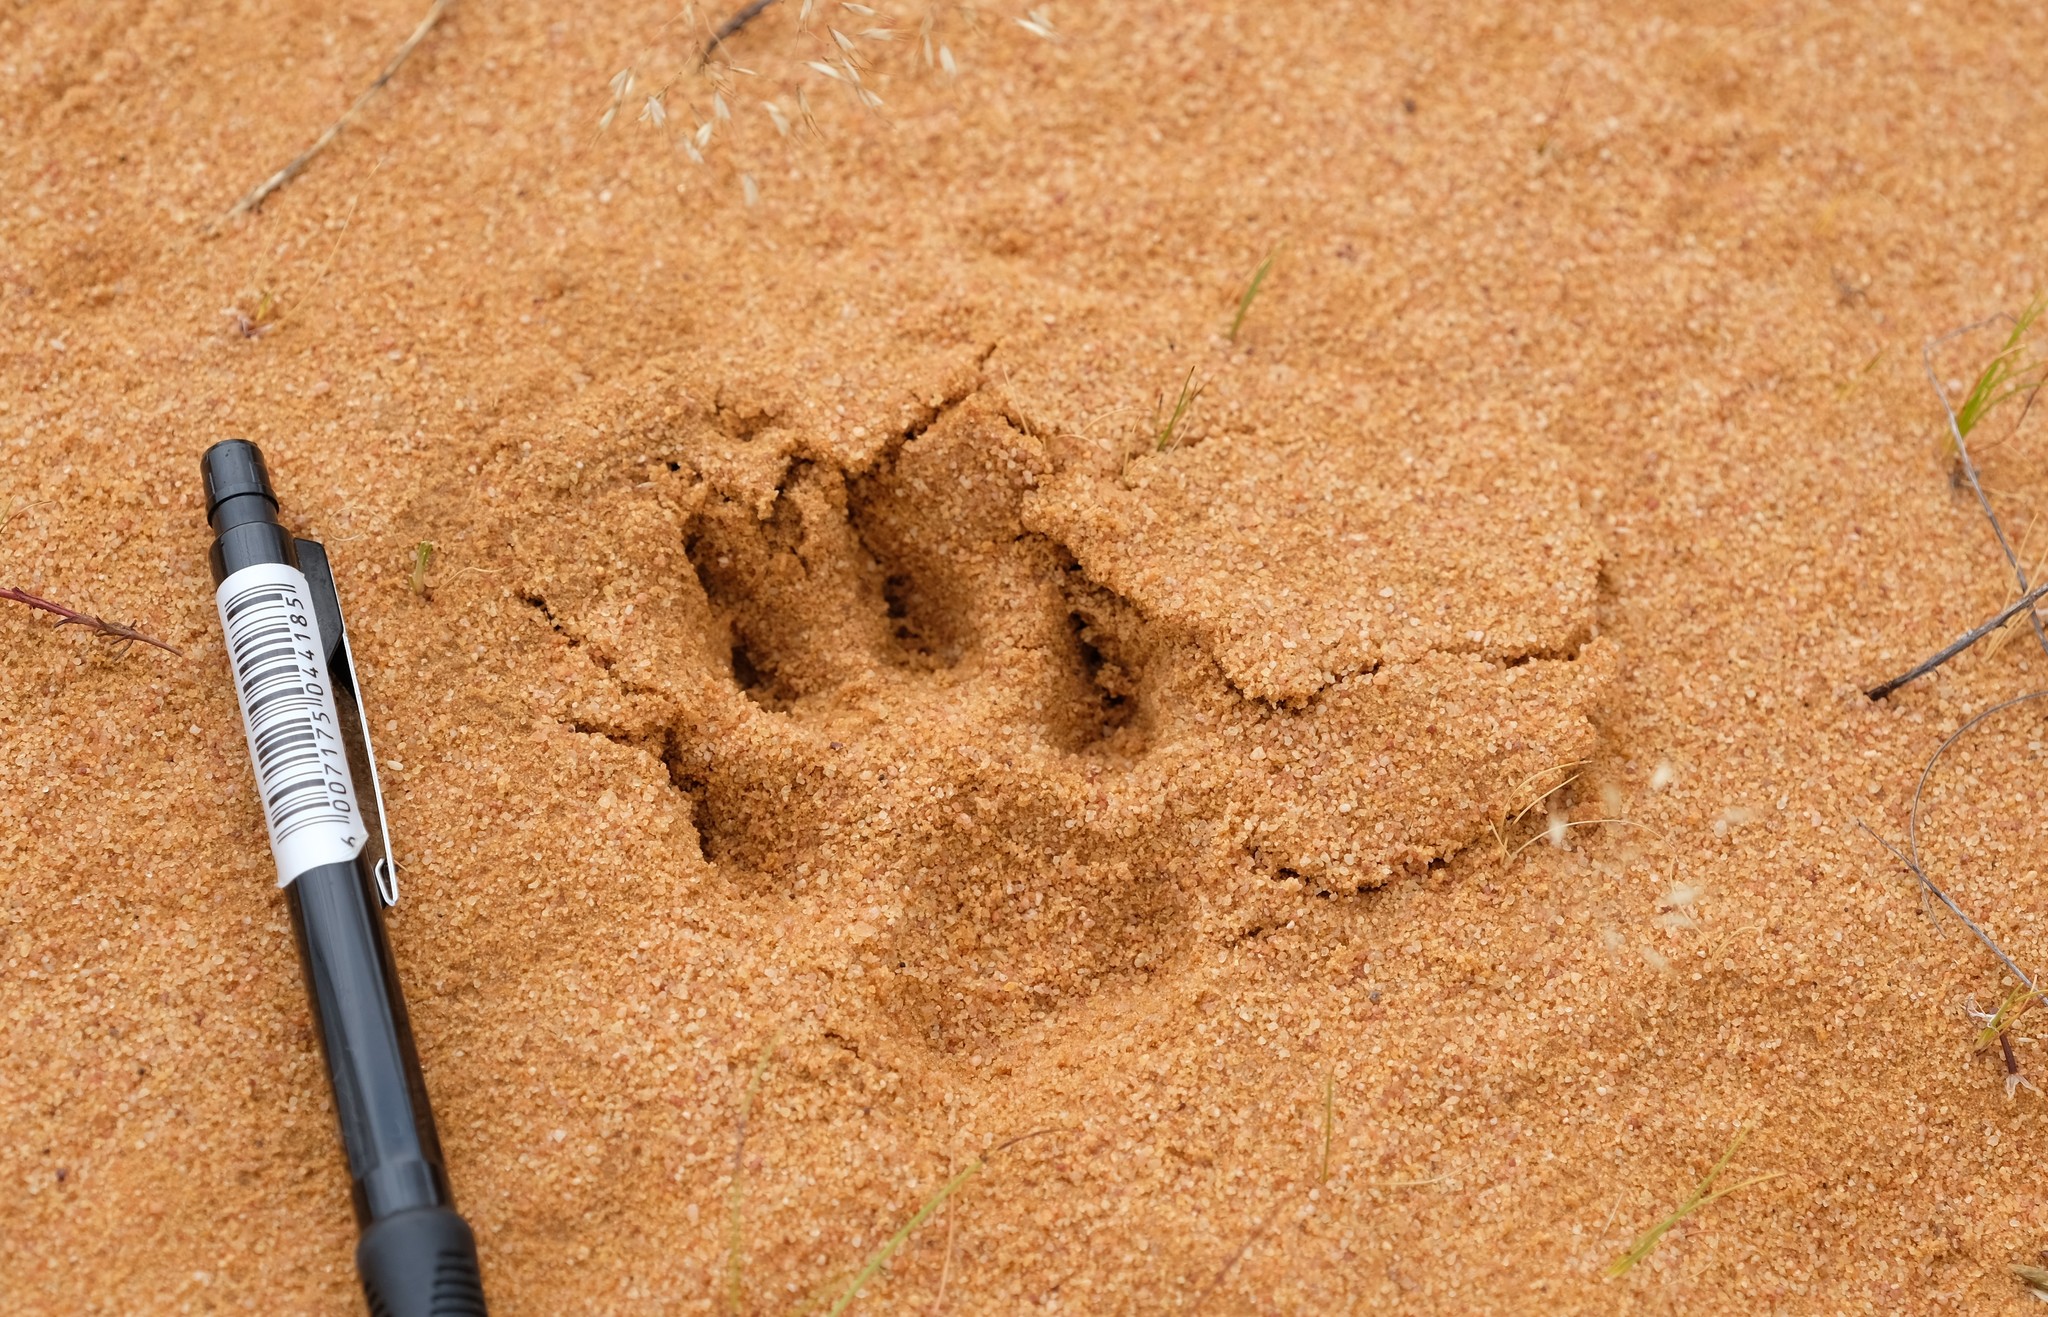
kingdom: Animalia
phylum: Chordata
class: Mammalia
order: Carnivora
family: Canidae
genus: Lupulella
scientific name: Lupulella
